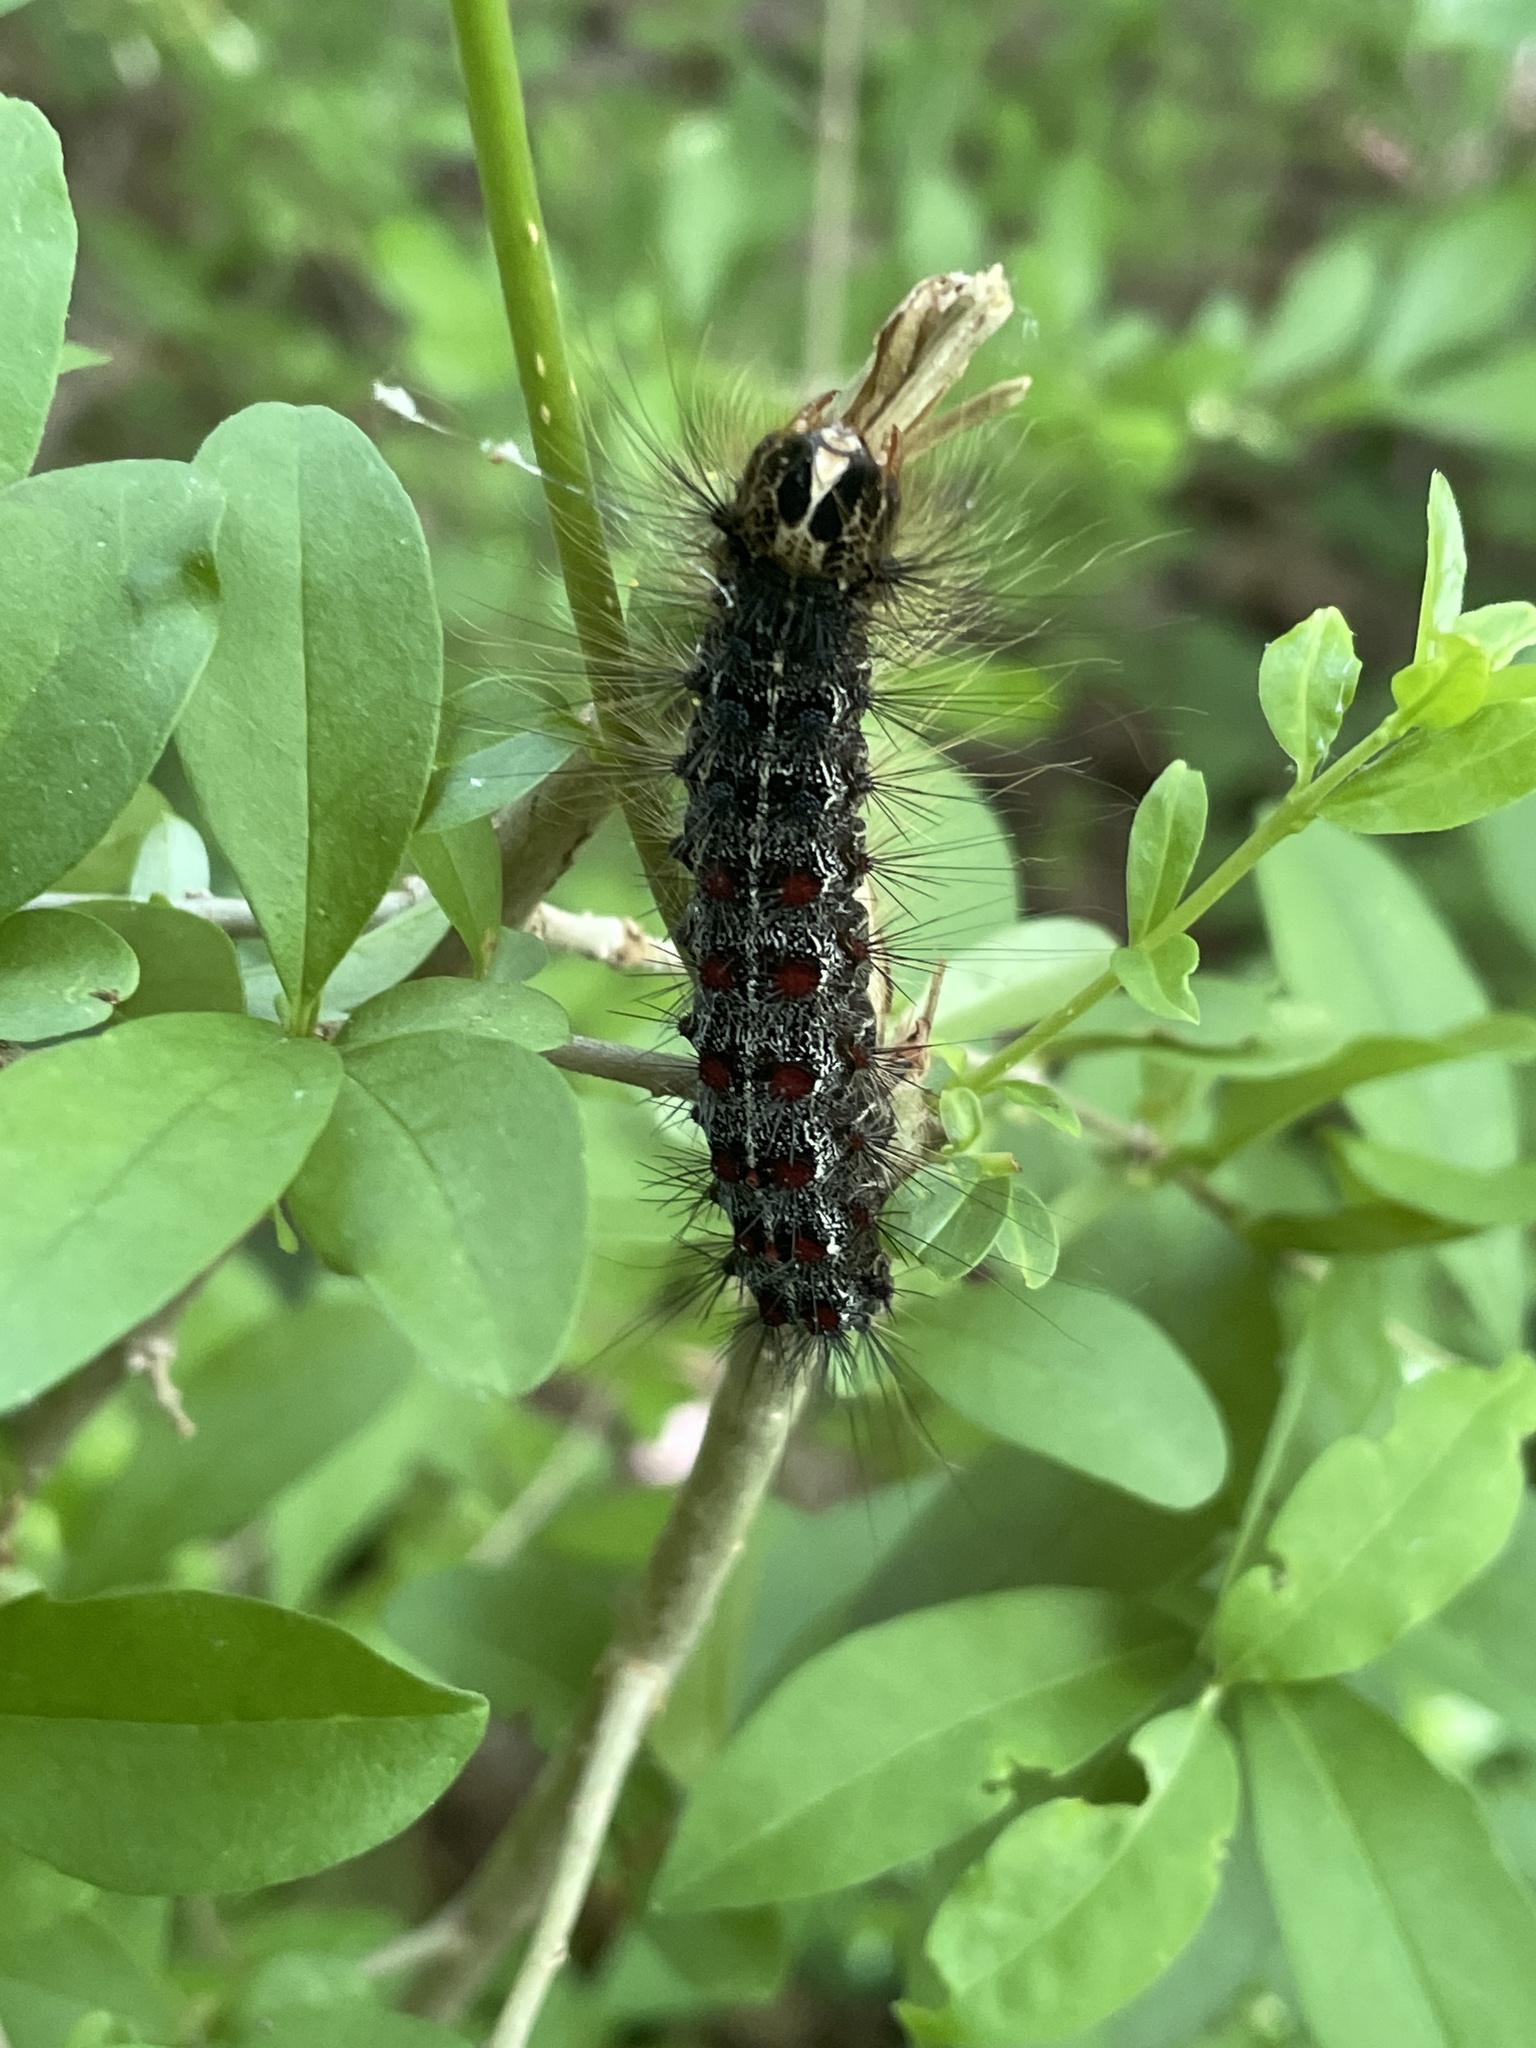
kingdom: Animalia
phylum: Arthropoda
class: Insecta
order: Lepidoptera
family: Erebidae
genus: Lymantria
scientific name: Lymantria dispar
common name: Gypsy moth
